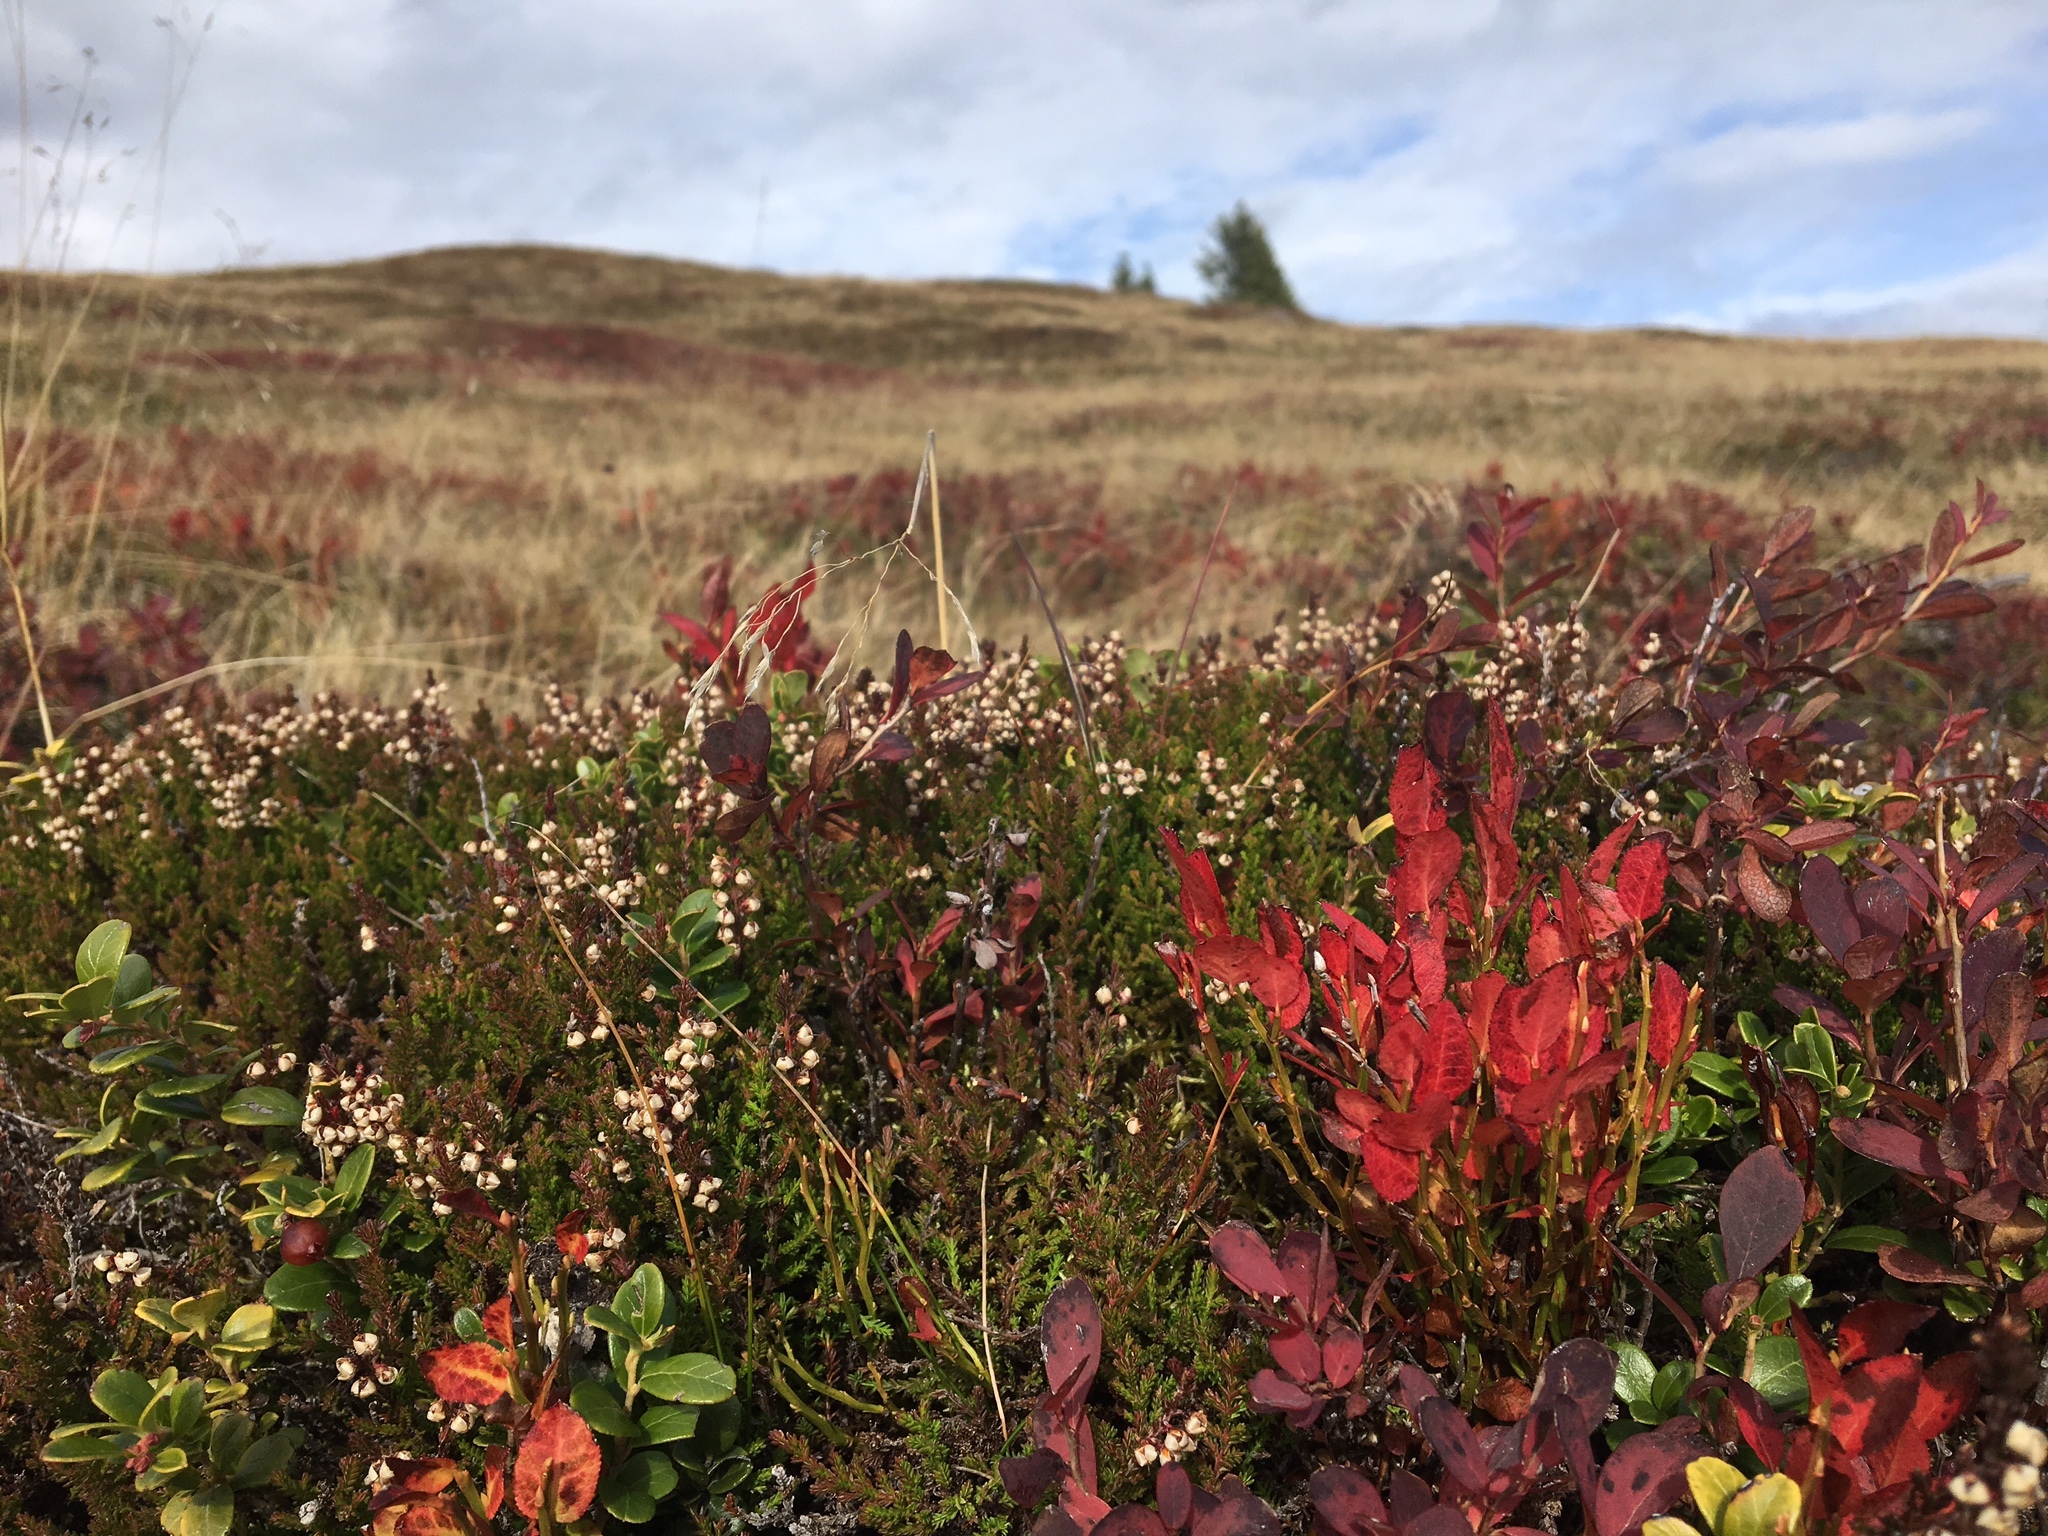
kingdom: Plantae
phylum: Tracheophyta
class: Magnoliopsida
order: Ericales
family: Ericaceae
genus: Vaccinium
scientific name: Vaccinium myrtillus
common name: Bilberry
